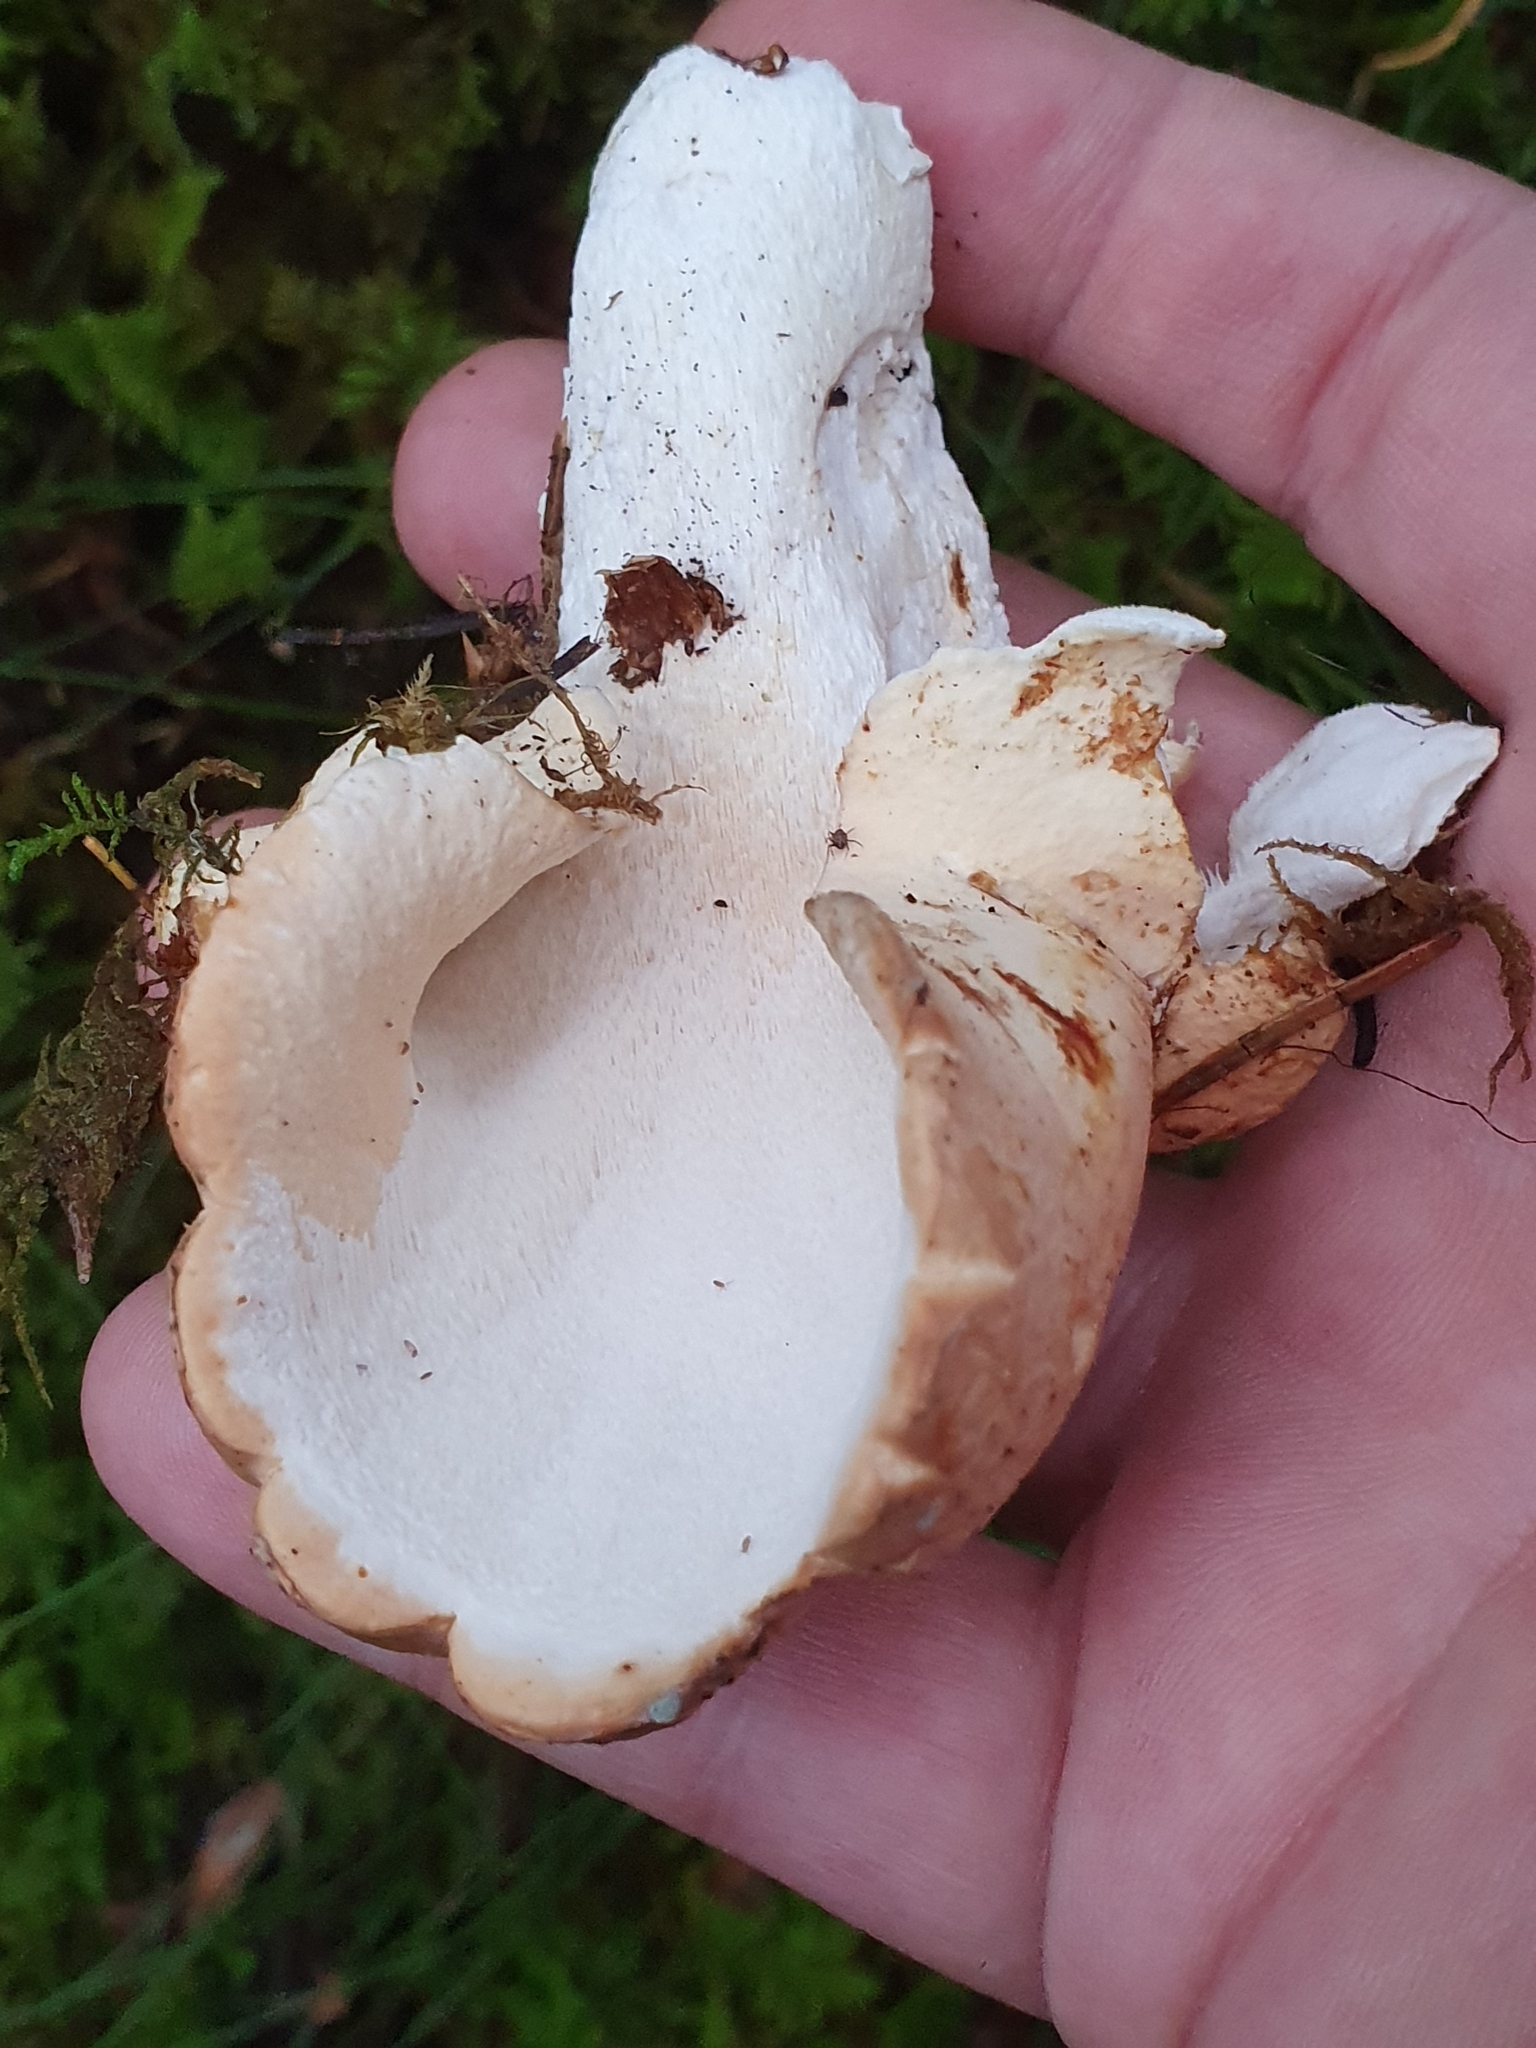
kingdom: Fungi
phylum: Basidiomycota
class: Agaricomycetes
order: Russulales
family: Albatrellaceae
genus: Albatrellopsis
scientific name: Albatrellopsis confluens
